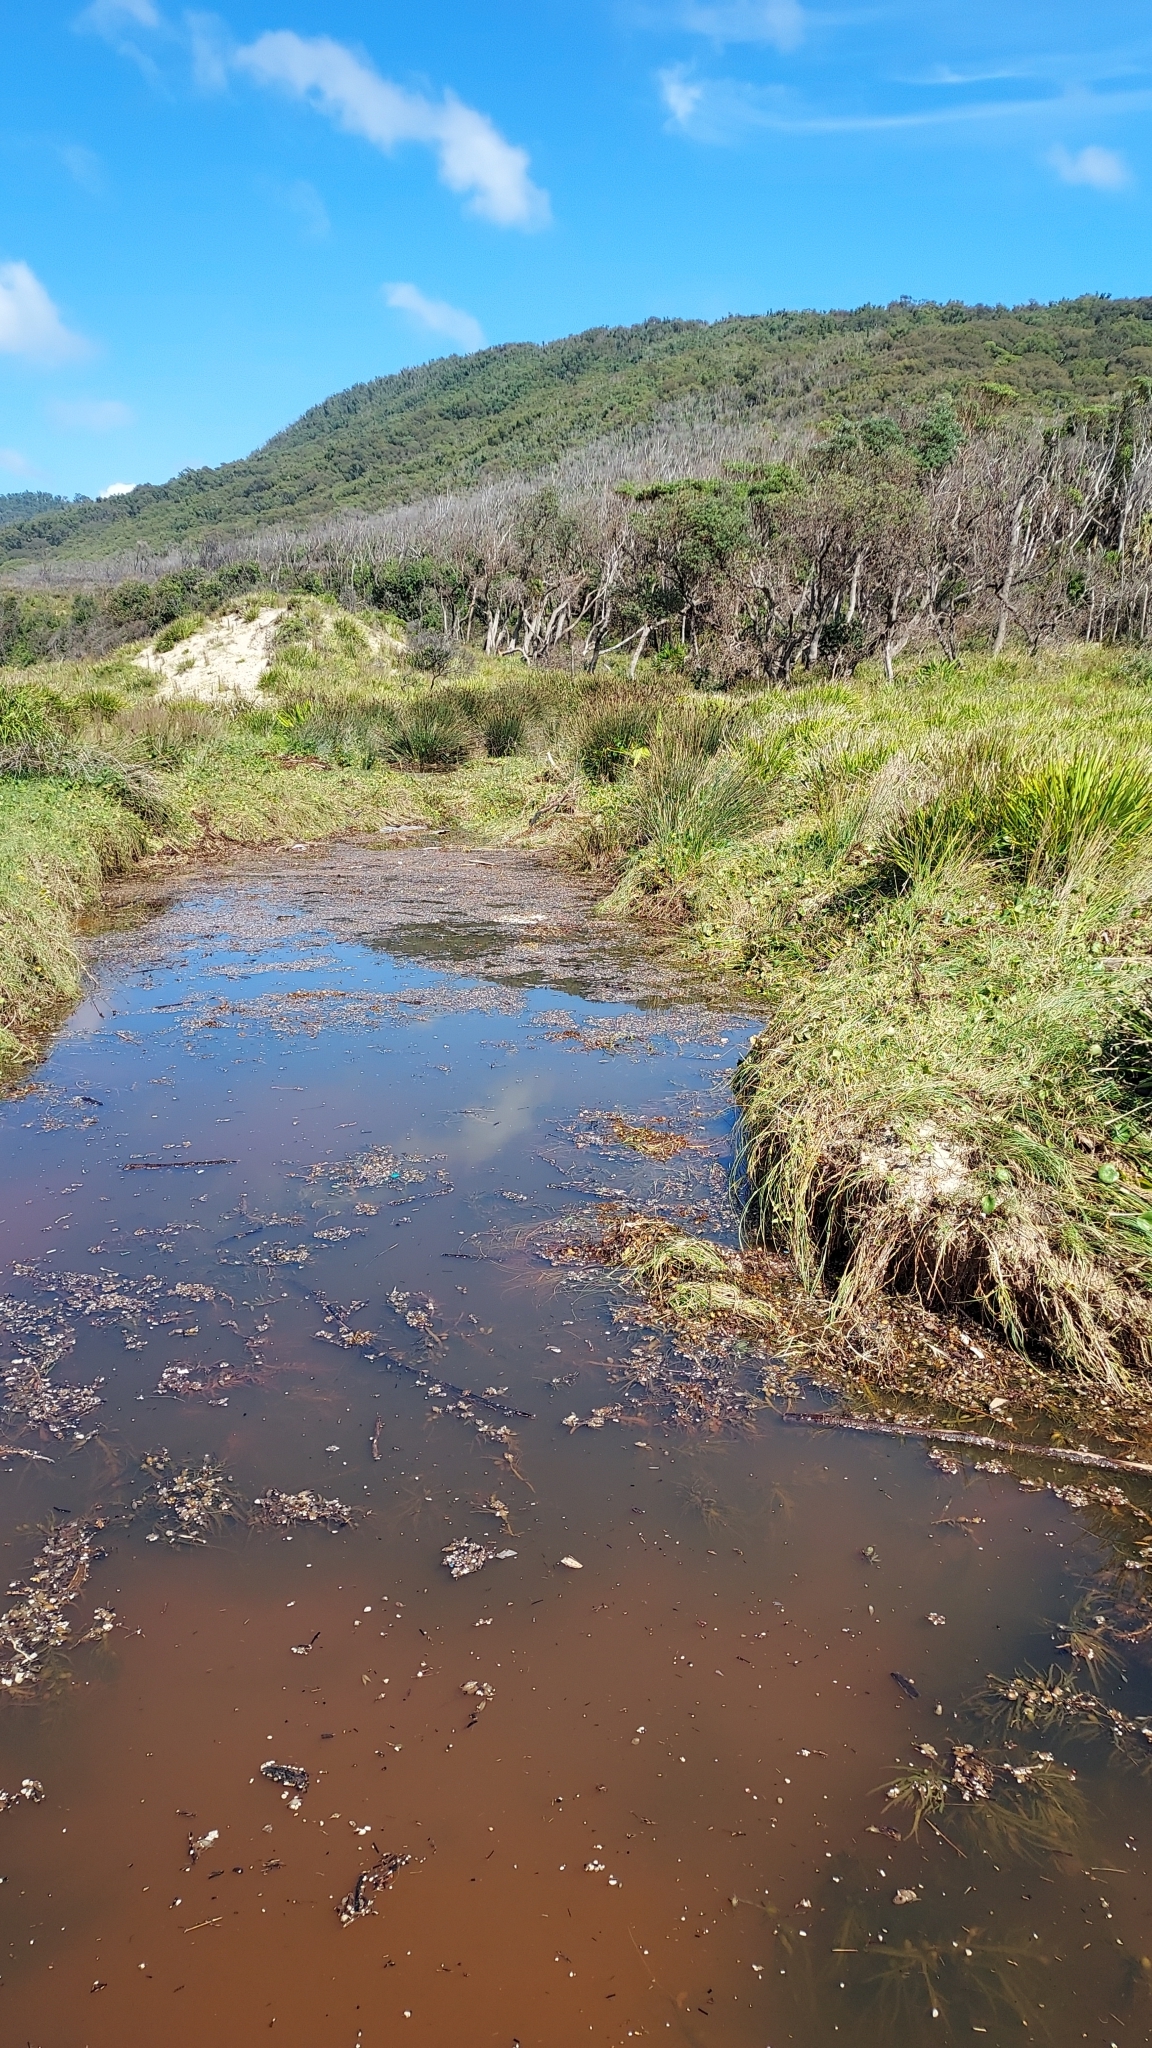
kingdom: Animalia
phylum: Chordata
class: Amphibia
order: Anura
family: Limnodynastidae
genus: Limnodynastes
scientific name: Limnodynastes peronii
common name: Brown frog
